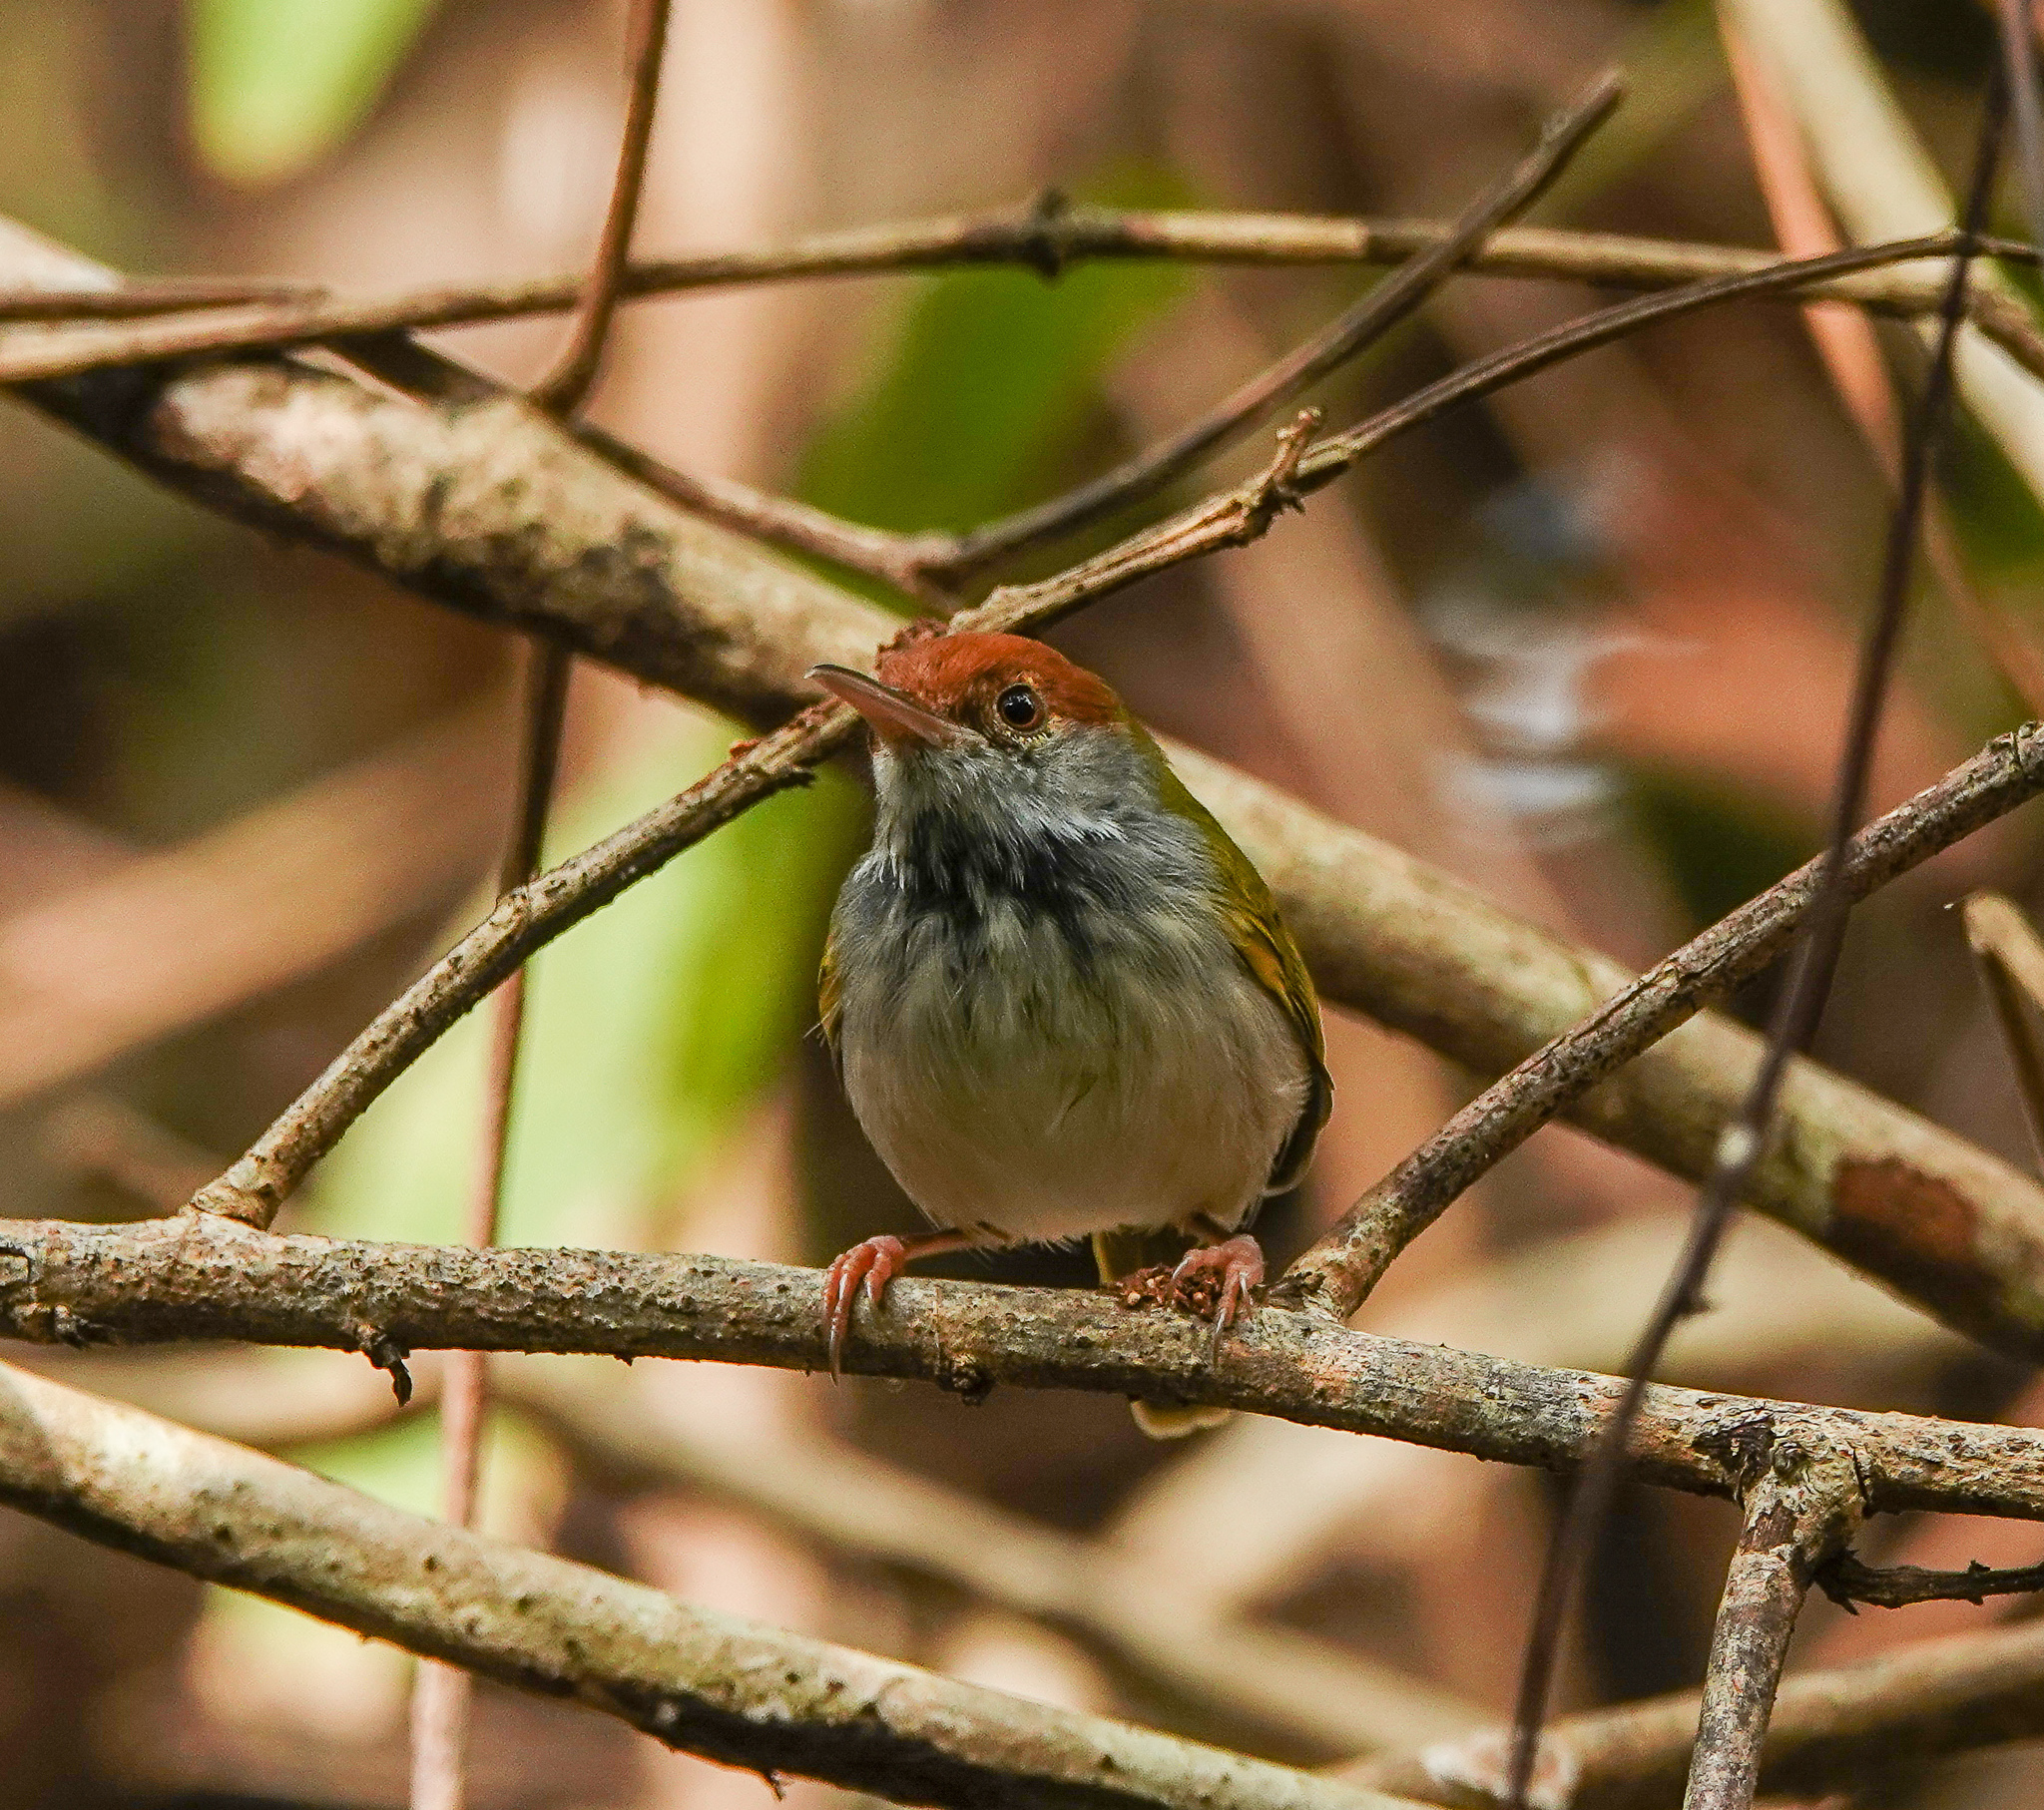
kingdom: Animalia
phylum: Chordata
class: Aves
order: Passeriformes
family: Cisticolidae
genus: Orthotomus
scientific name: Orthotomus atrogularis
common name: Dark-necked tailorbird
